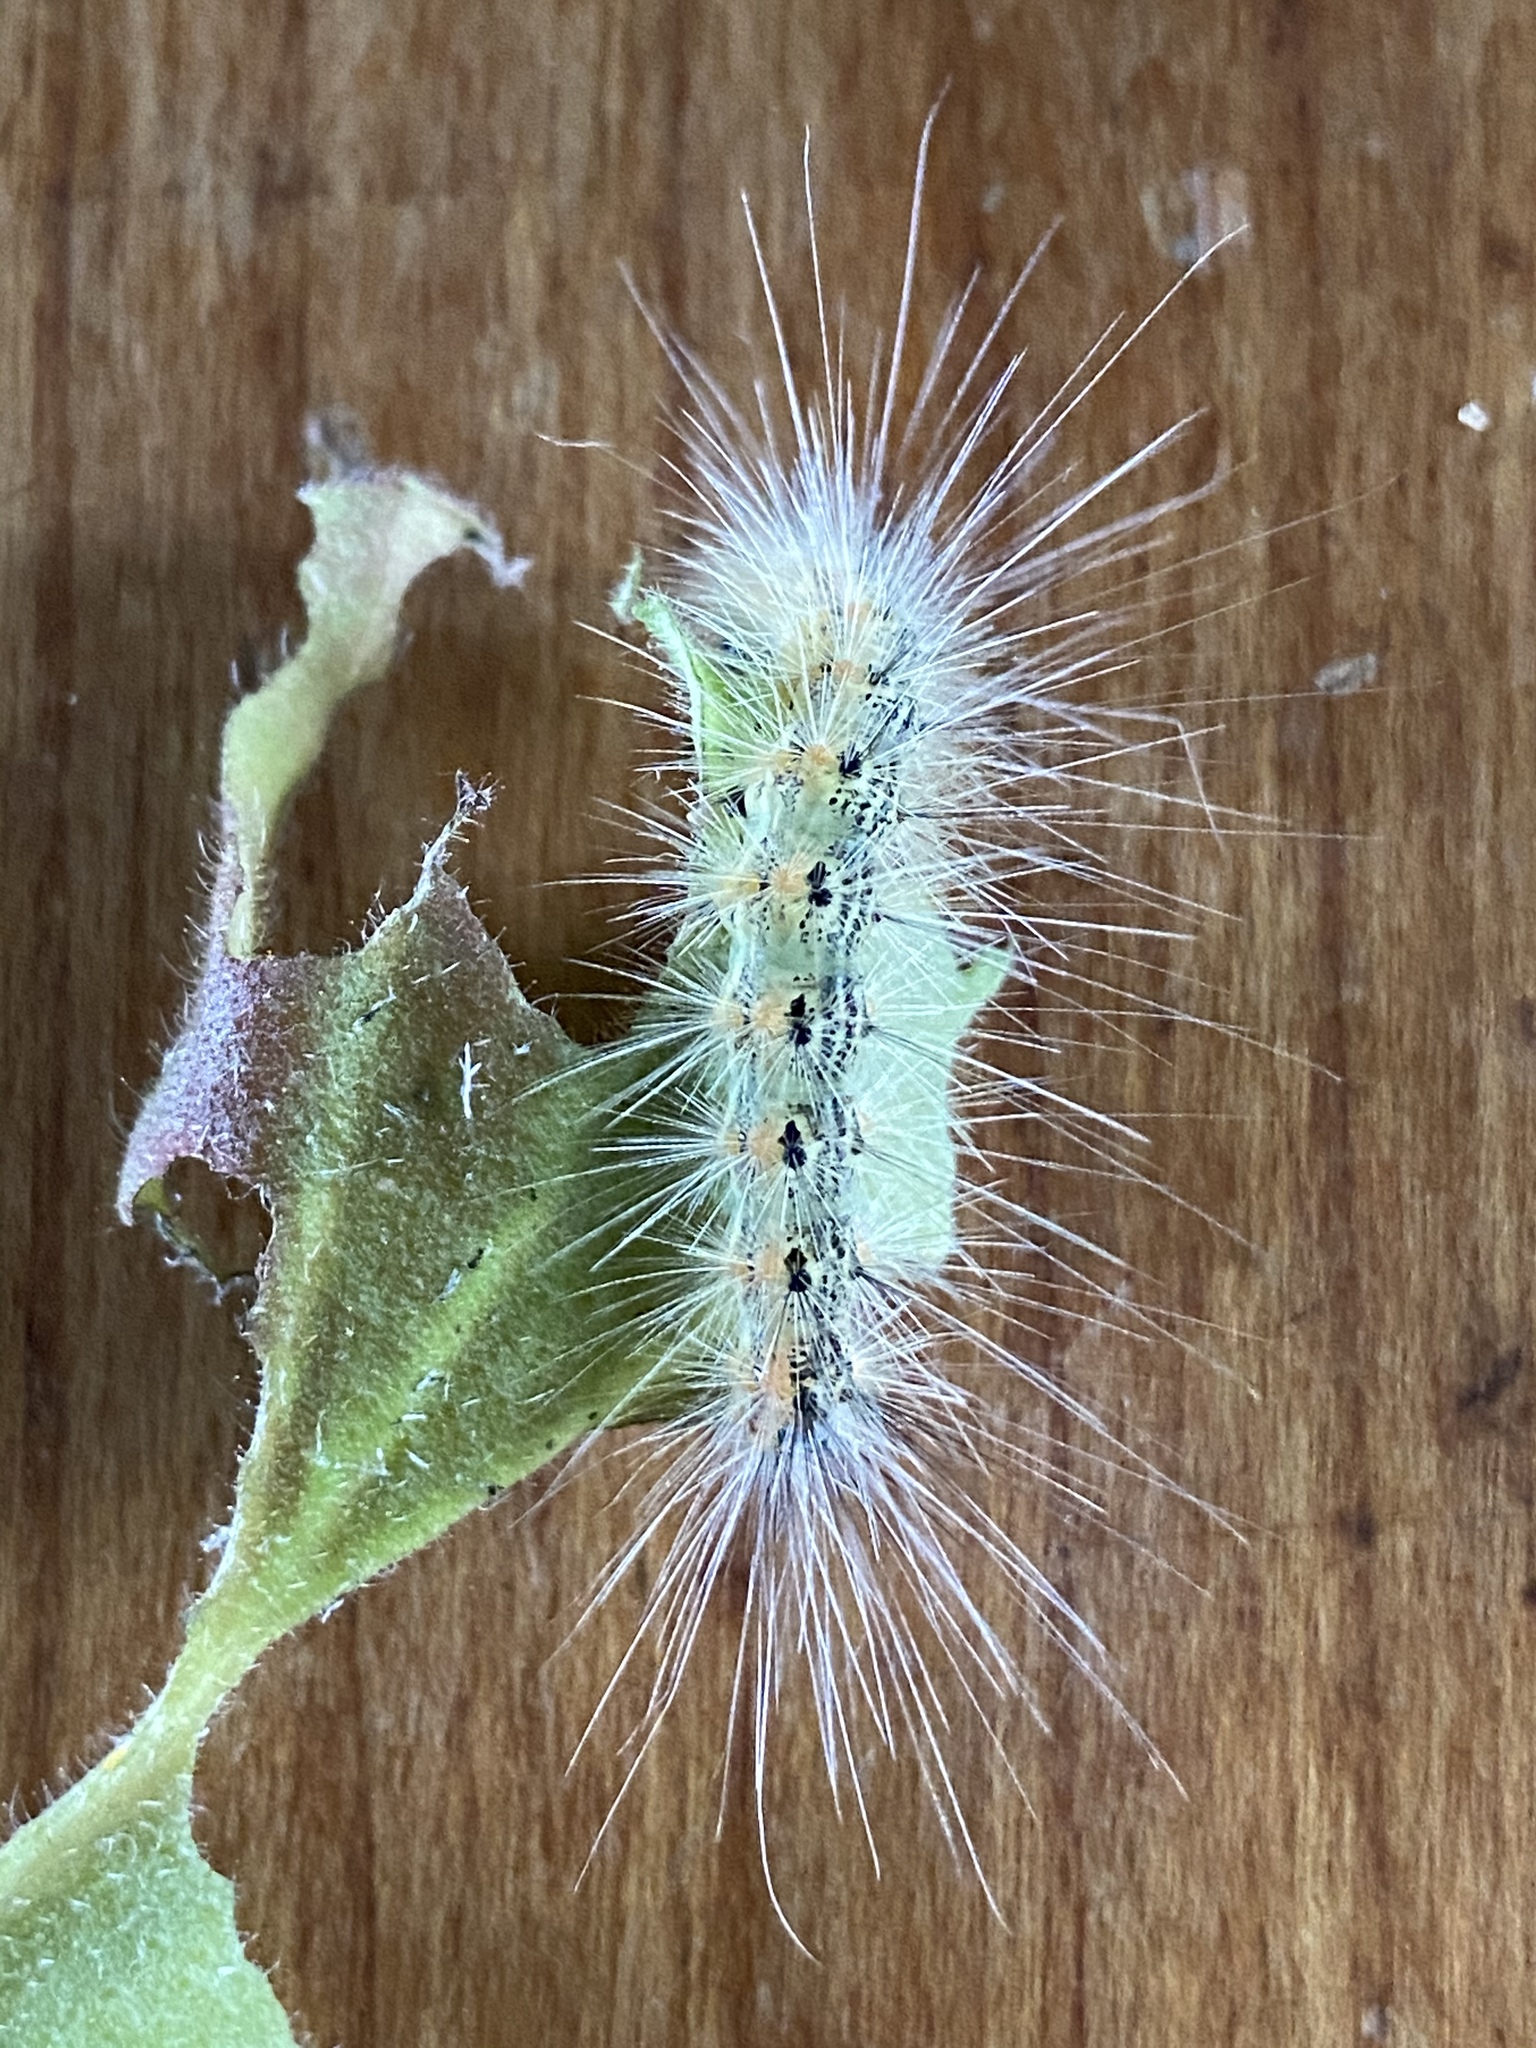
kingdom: Animalia
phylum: Arthropoda
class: Insecta
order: Lepidoptera
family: Erebidae
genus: Hyphantria
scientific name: Hyphantria cunea
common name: American white moth
